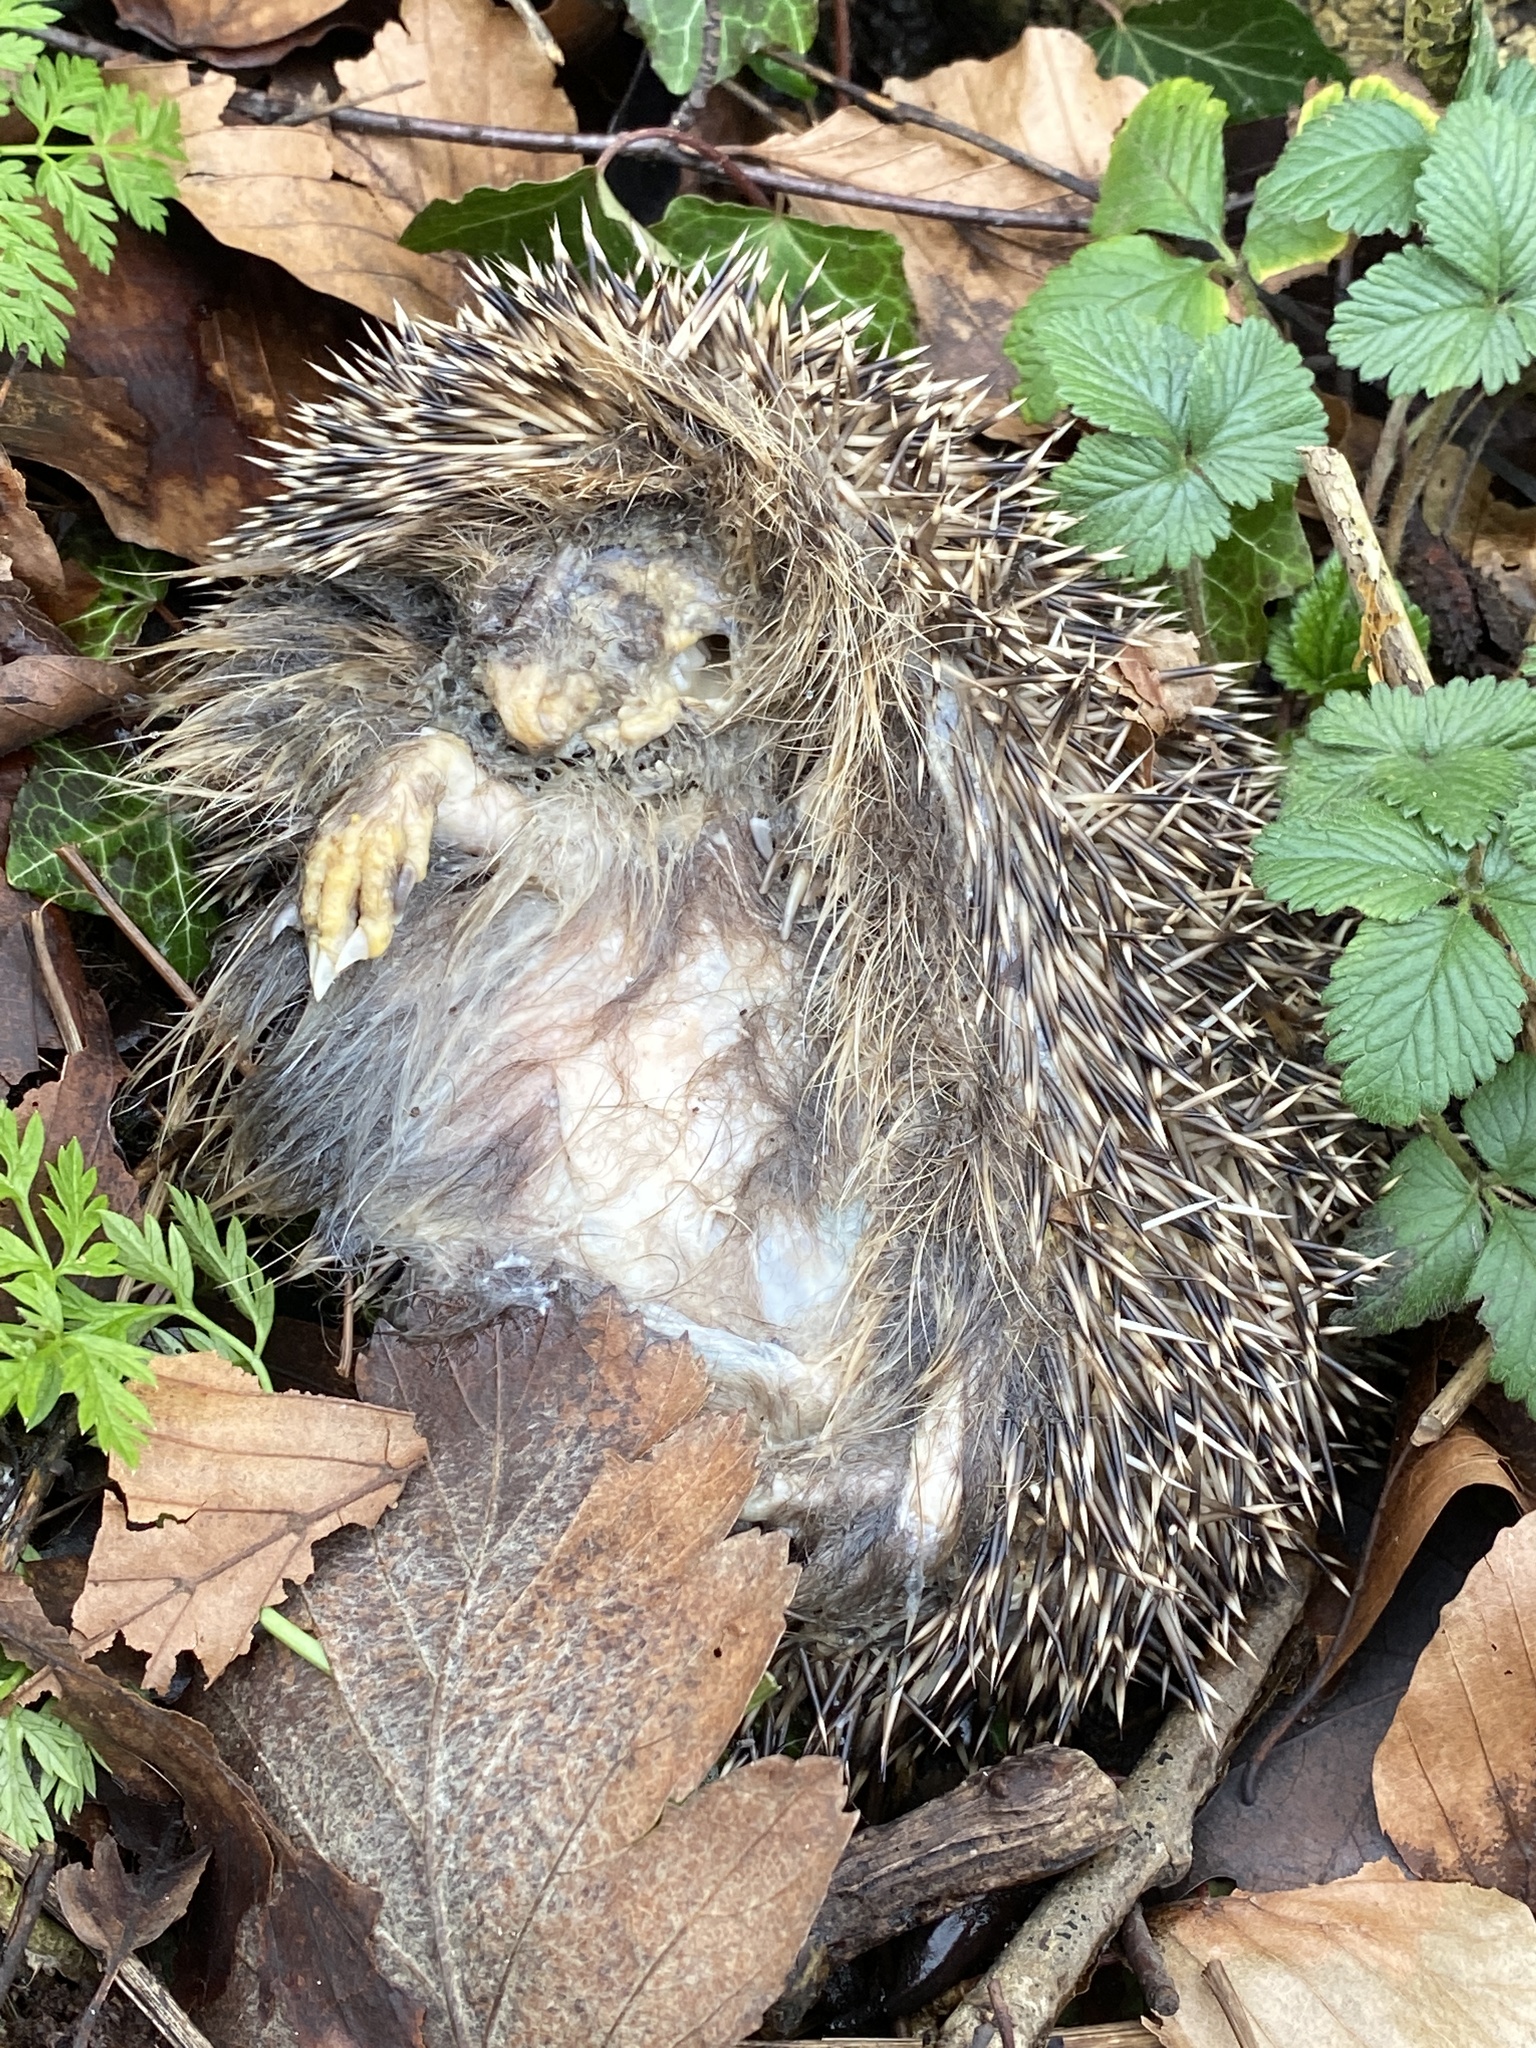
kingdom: Animalia
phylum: Chordata
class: Mammalia
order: Erinaceomorpha
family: Erinaceidae
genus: Erinaceus
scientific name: Erinaceus europaeus
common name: West european hedgehog
